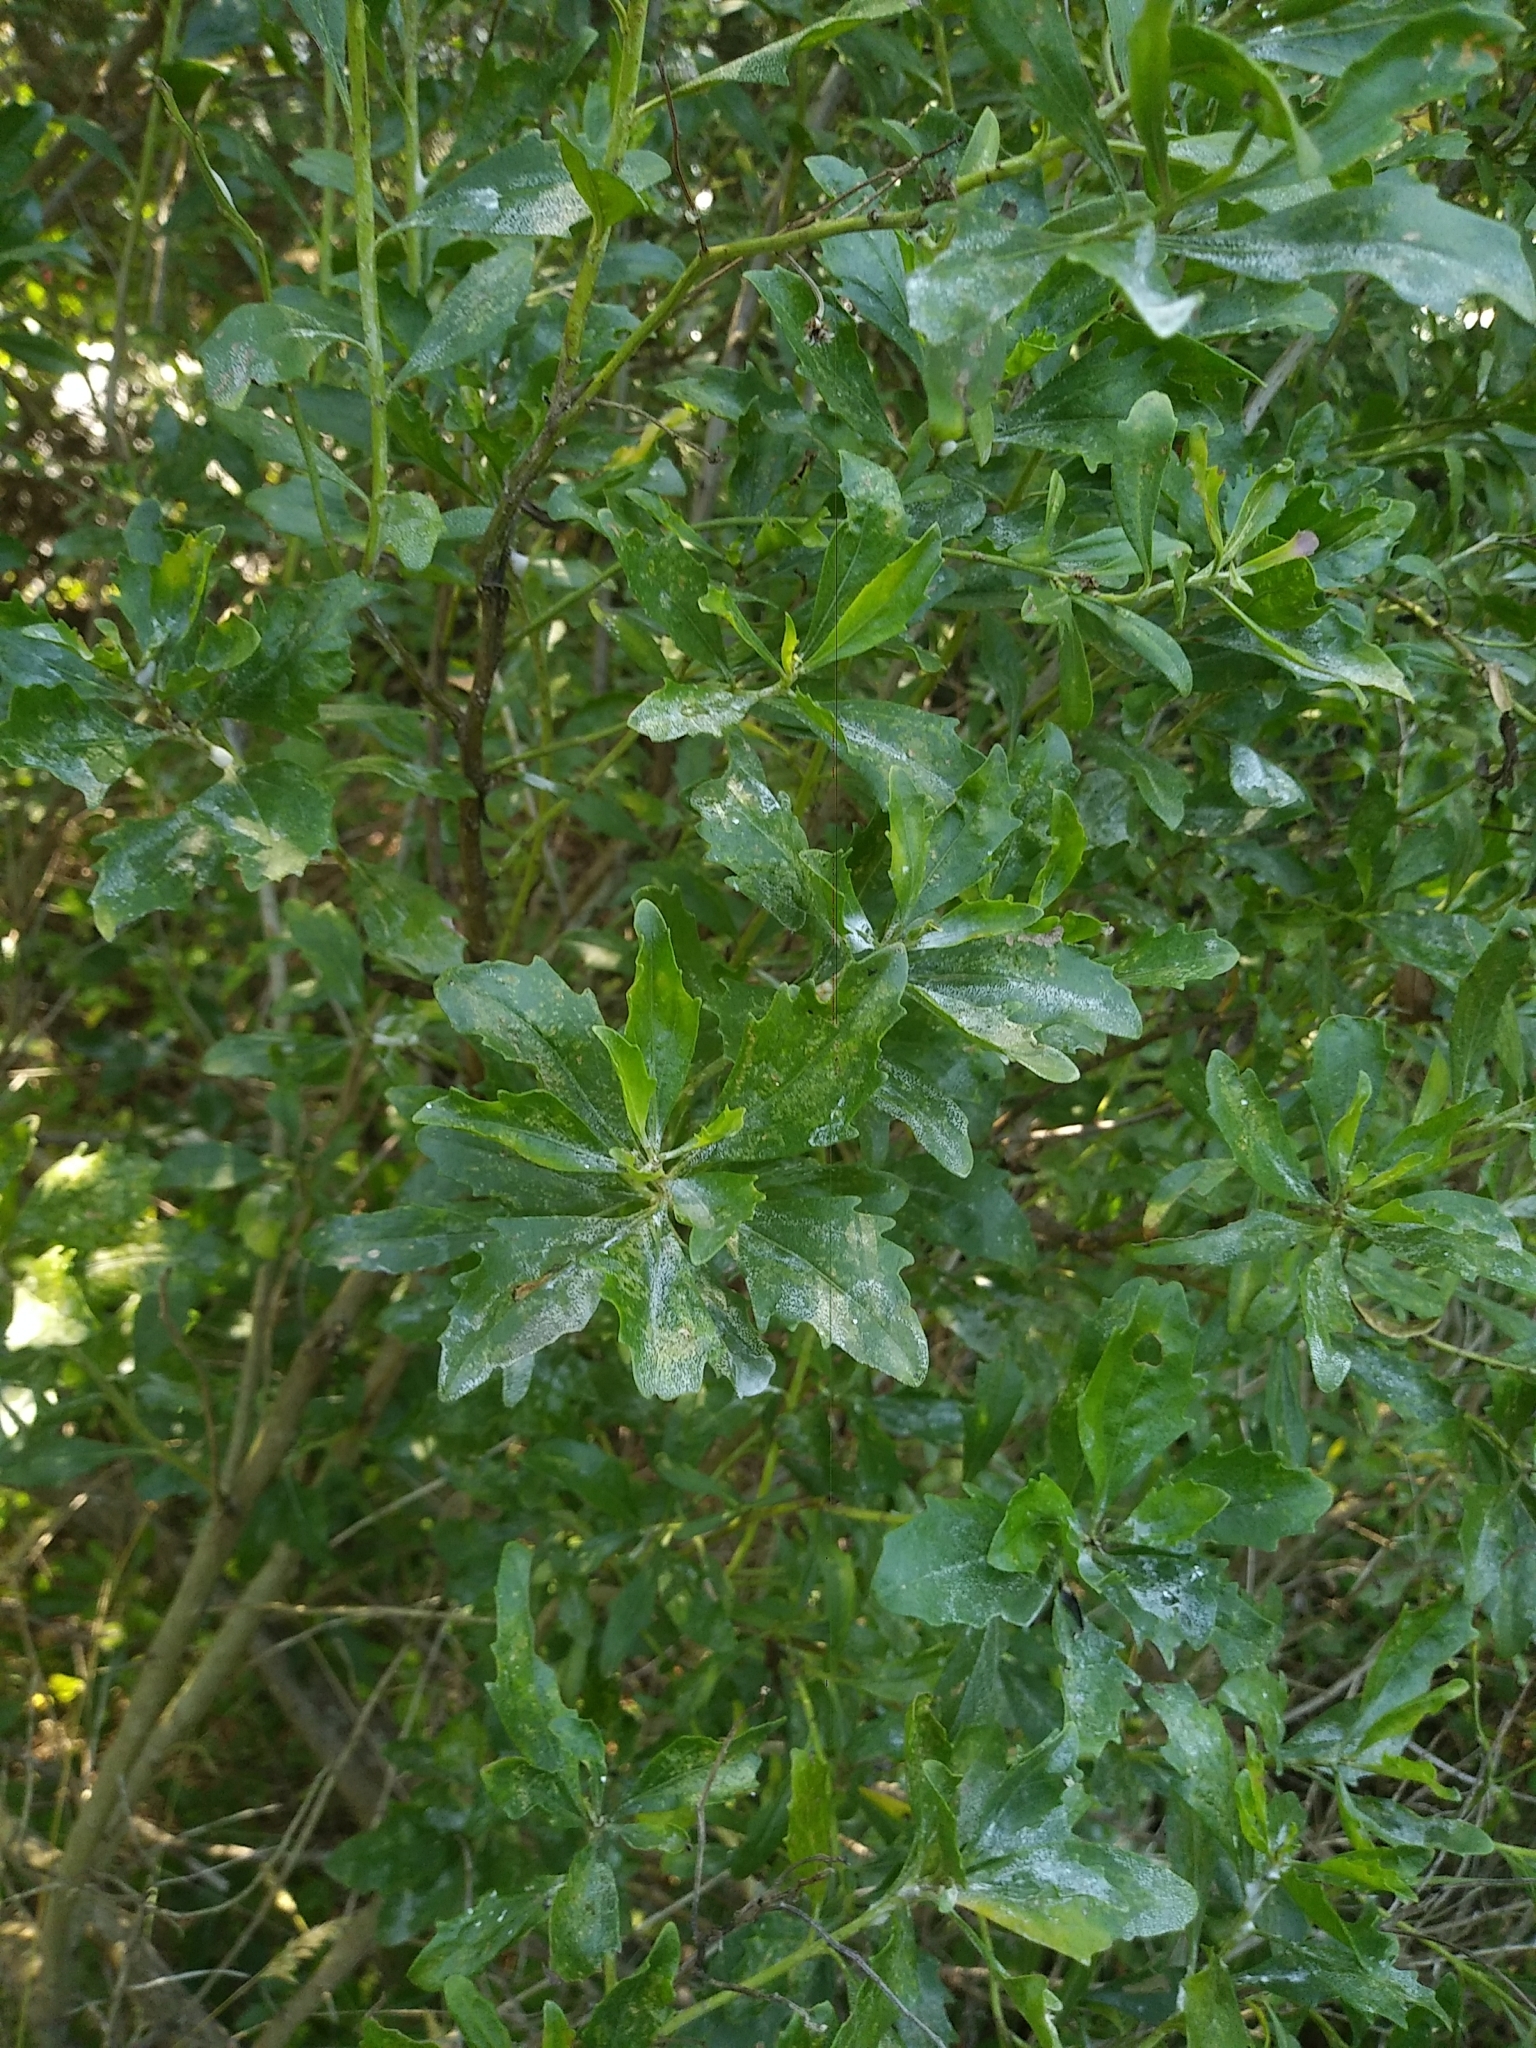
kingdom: Plantae
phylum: Tracheophyta
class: Magnoliopsida
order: Asterales
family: Asteraceae
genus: Baccharis
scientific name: Baccharis halimifolia
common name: Eastern baccharis
